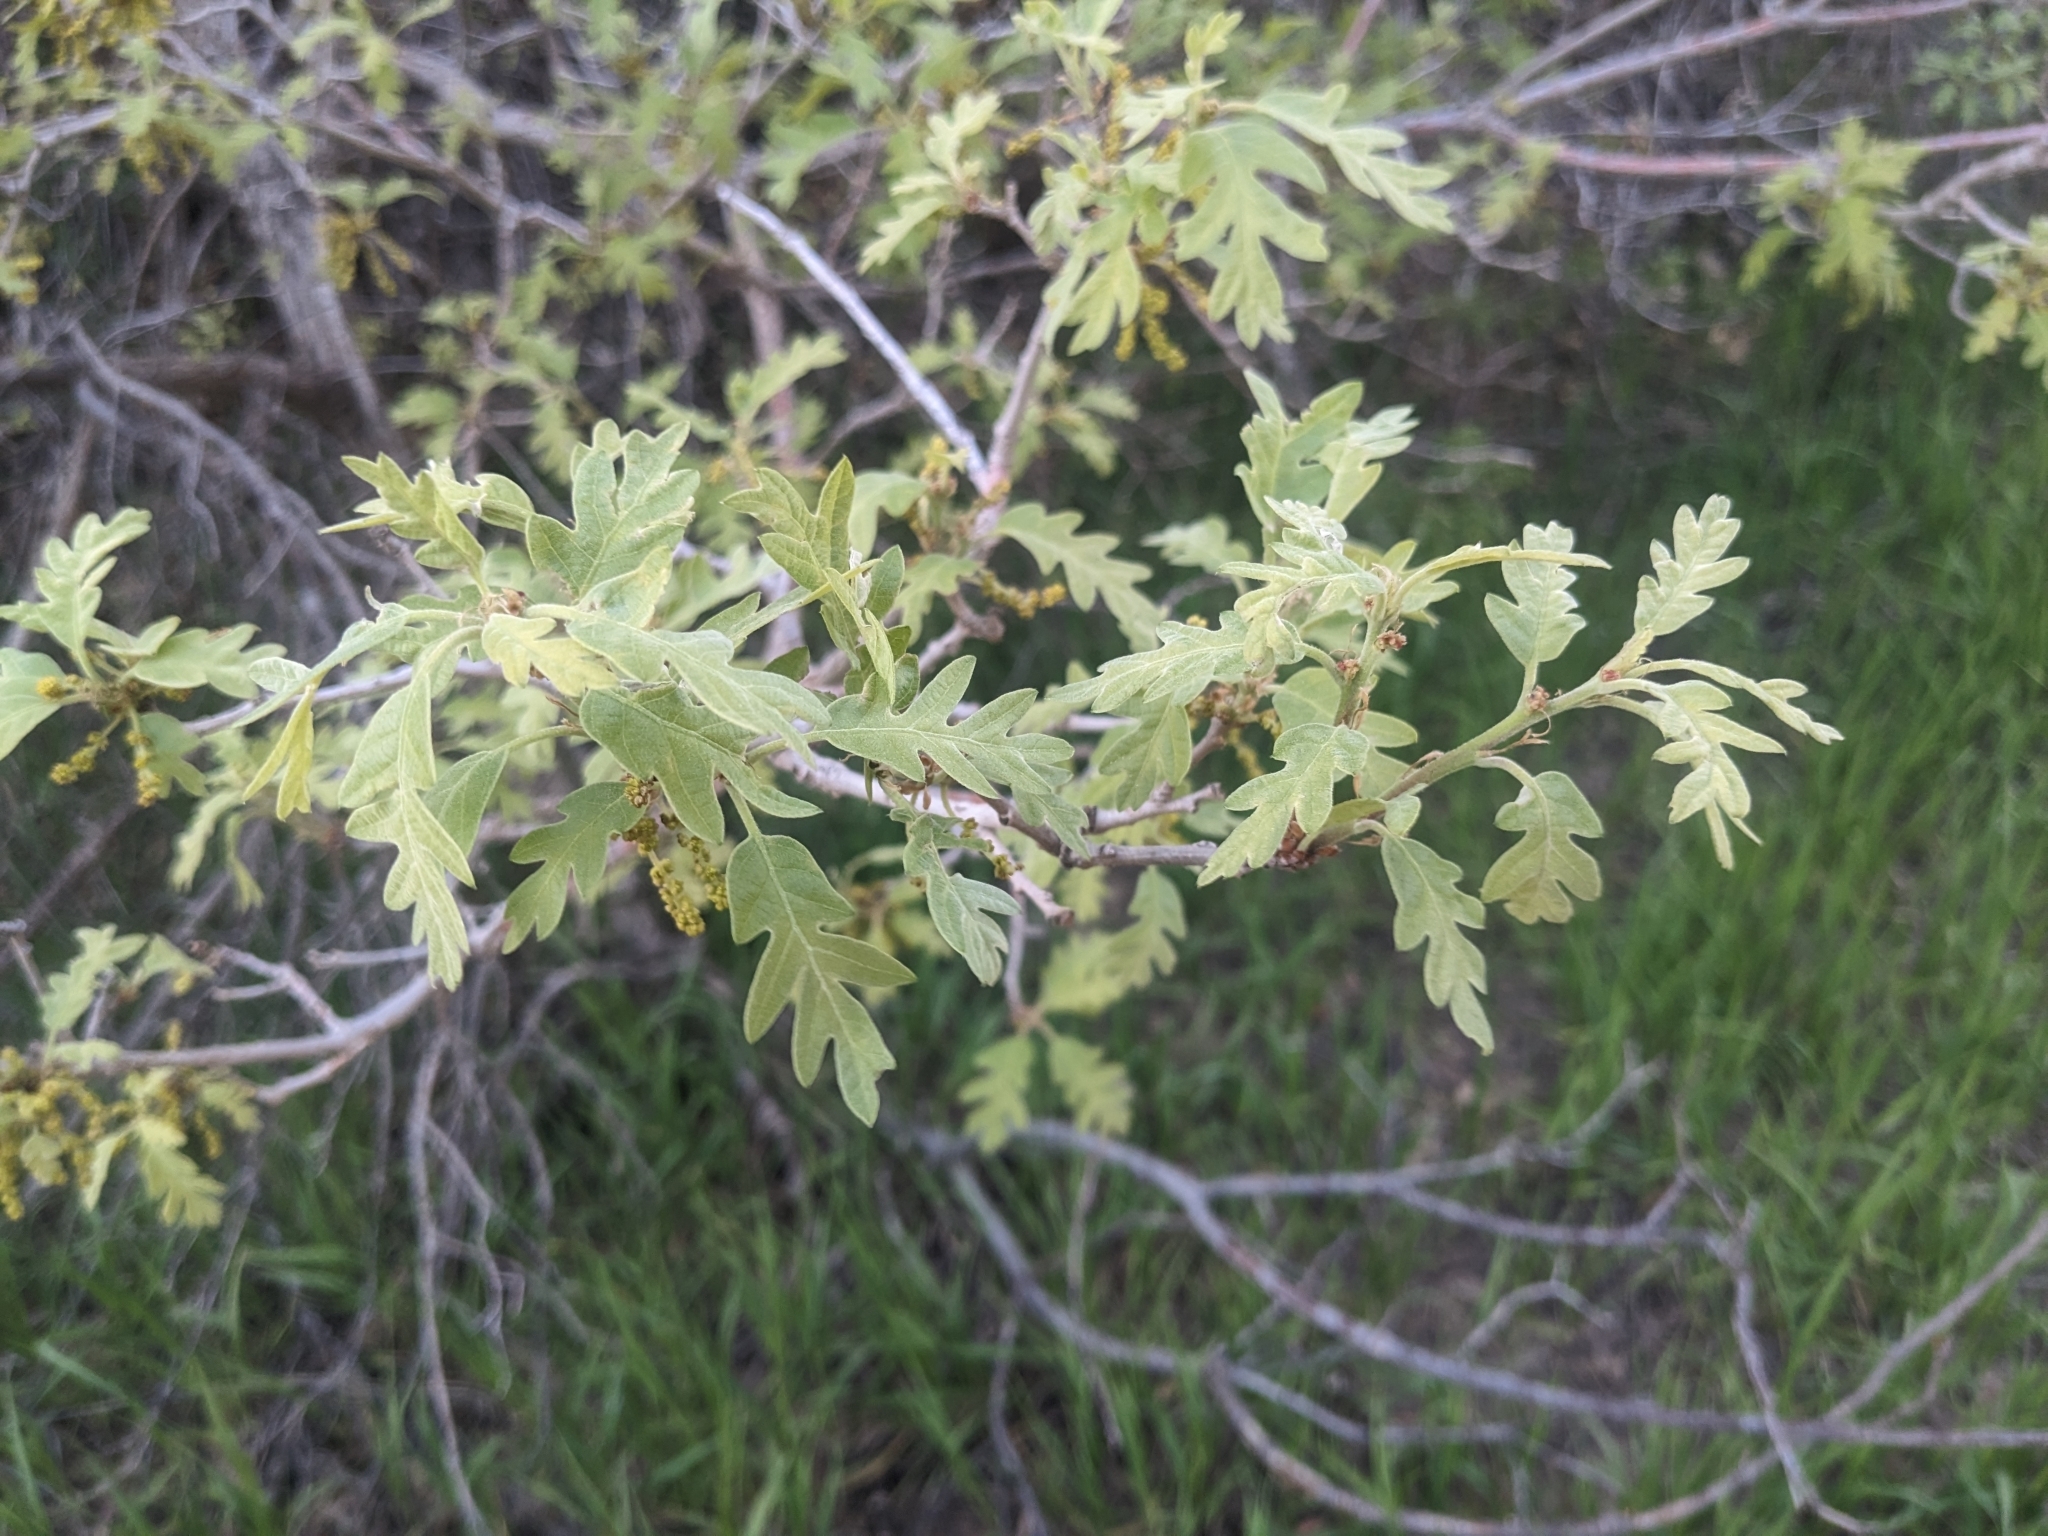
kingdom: Plantae
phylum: Tracheophyta
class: Magnoliopsida
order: Fagales
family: Fagaceae
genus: Quercus
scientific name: Quercus gambelii
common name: Gambel oak
